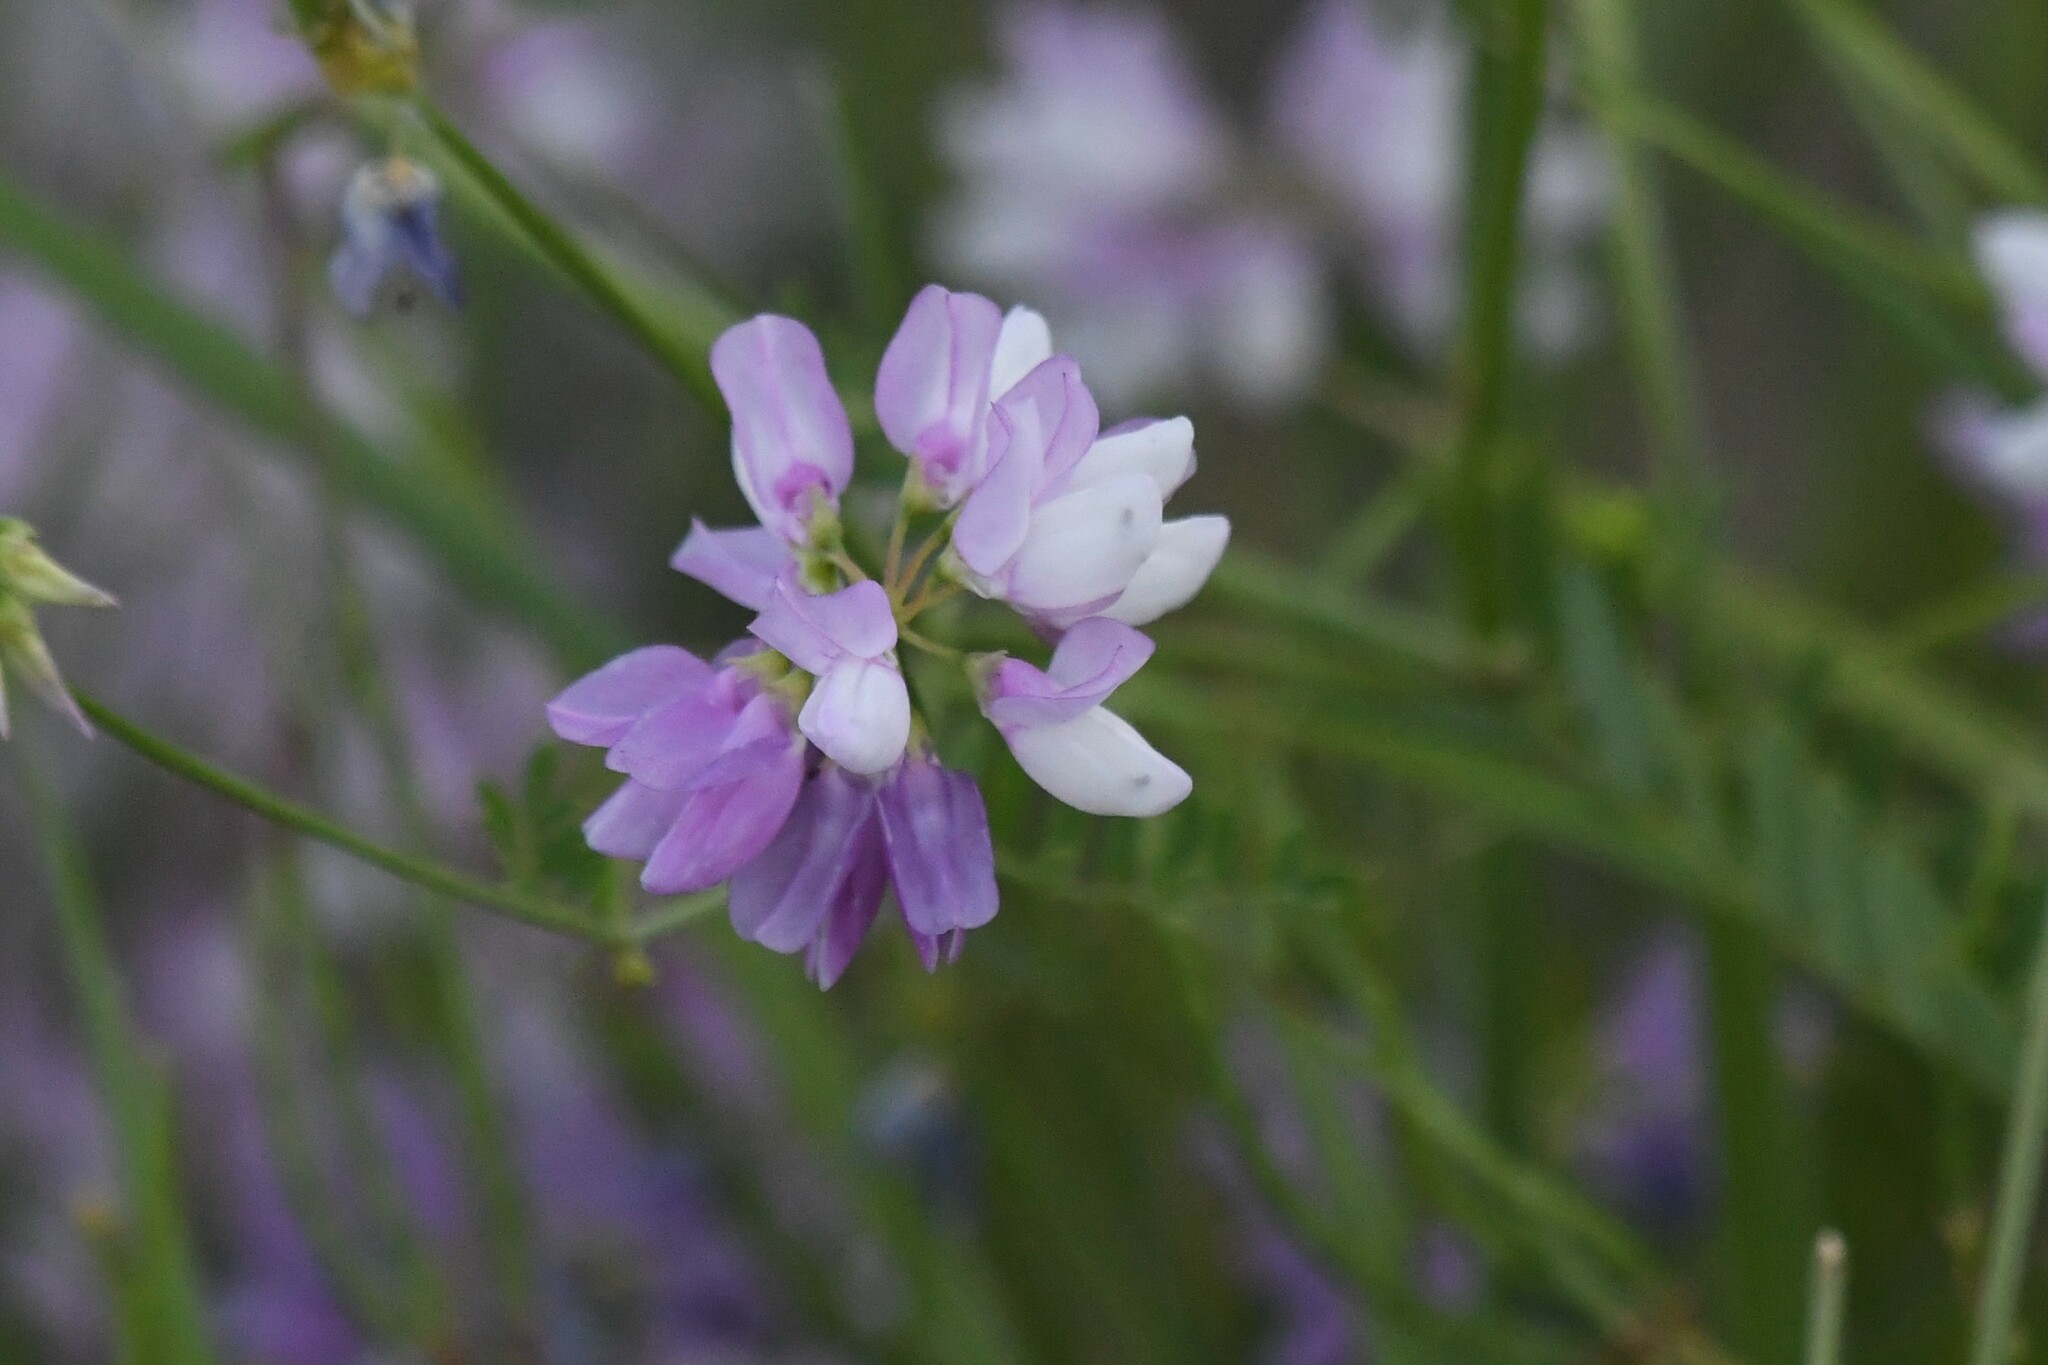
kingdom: Plantae
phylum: Tracheophyta
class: Magnoliopsida
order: Fabales
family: Fabaceae
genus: Coronilla
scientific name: Coronilla varia
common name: Crownvetch
